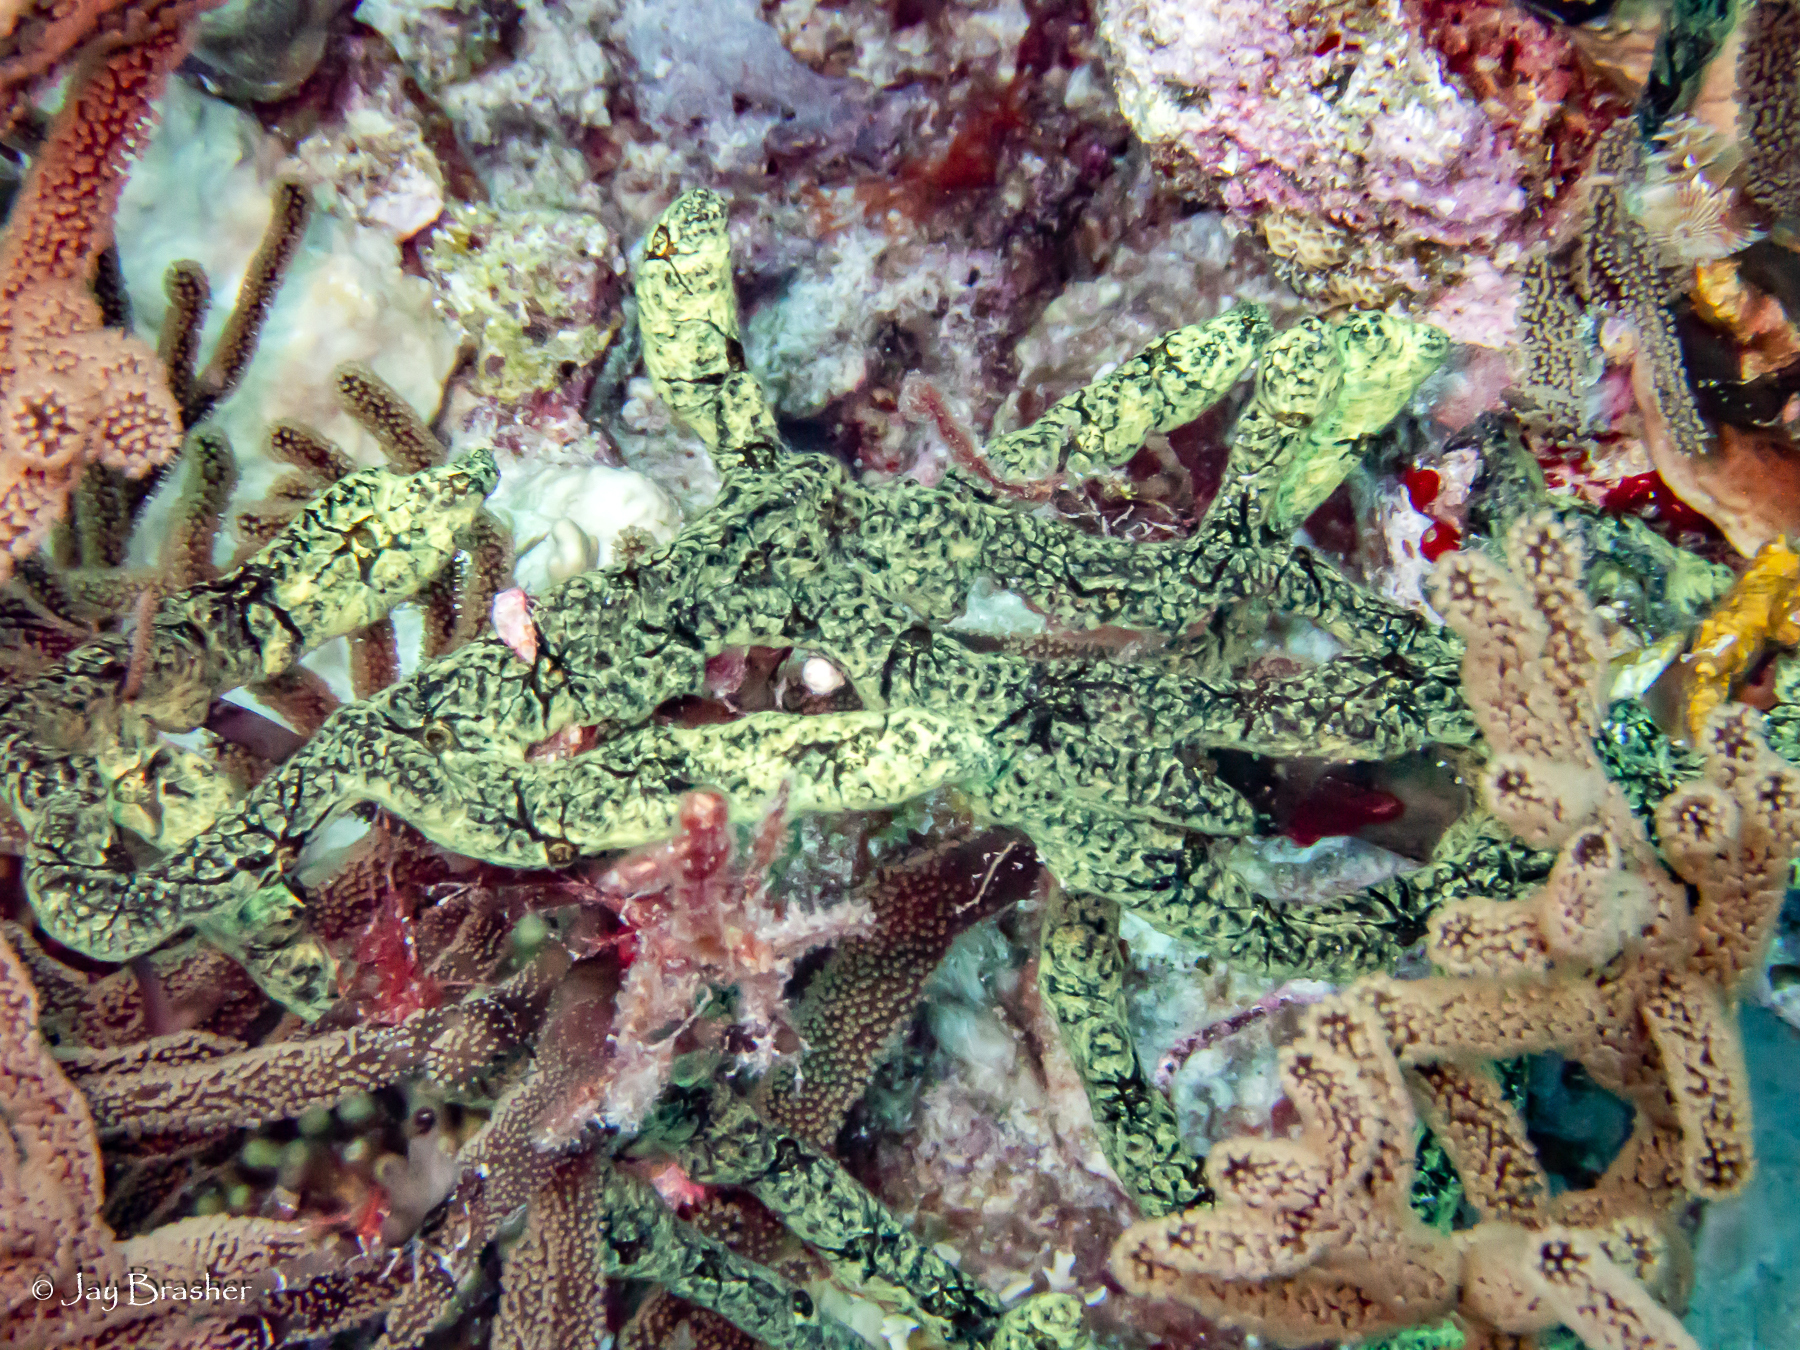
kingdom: Animalia
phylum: Porifera
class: Demospongiae
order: Poecilosclerida
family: Iotrochotidae
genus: Iotrochota
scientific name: Iotrochota birotulata
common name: Purple bleeding sponge
